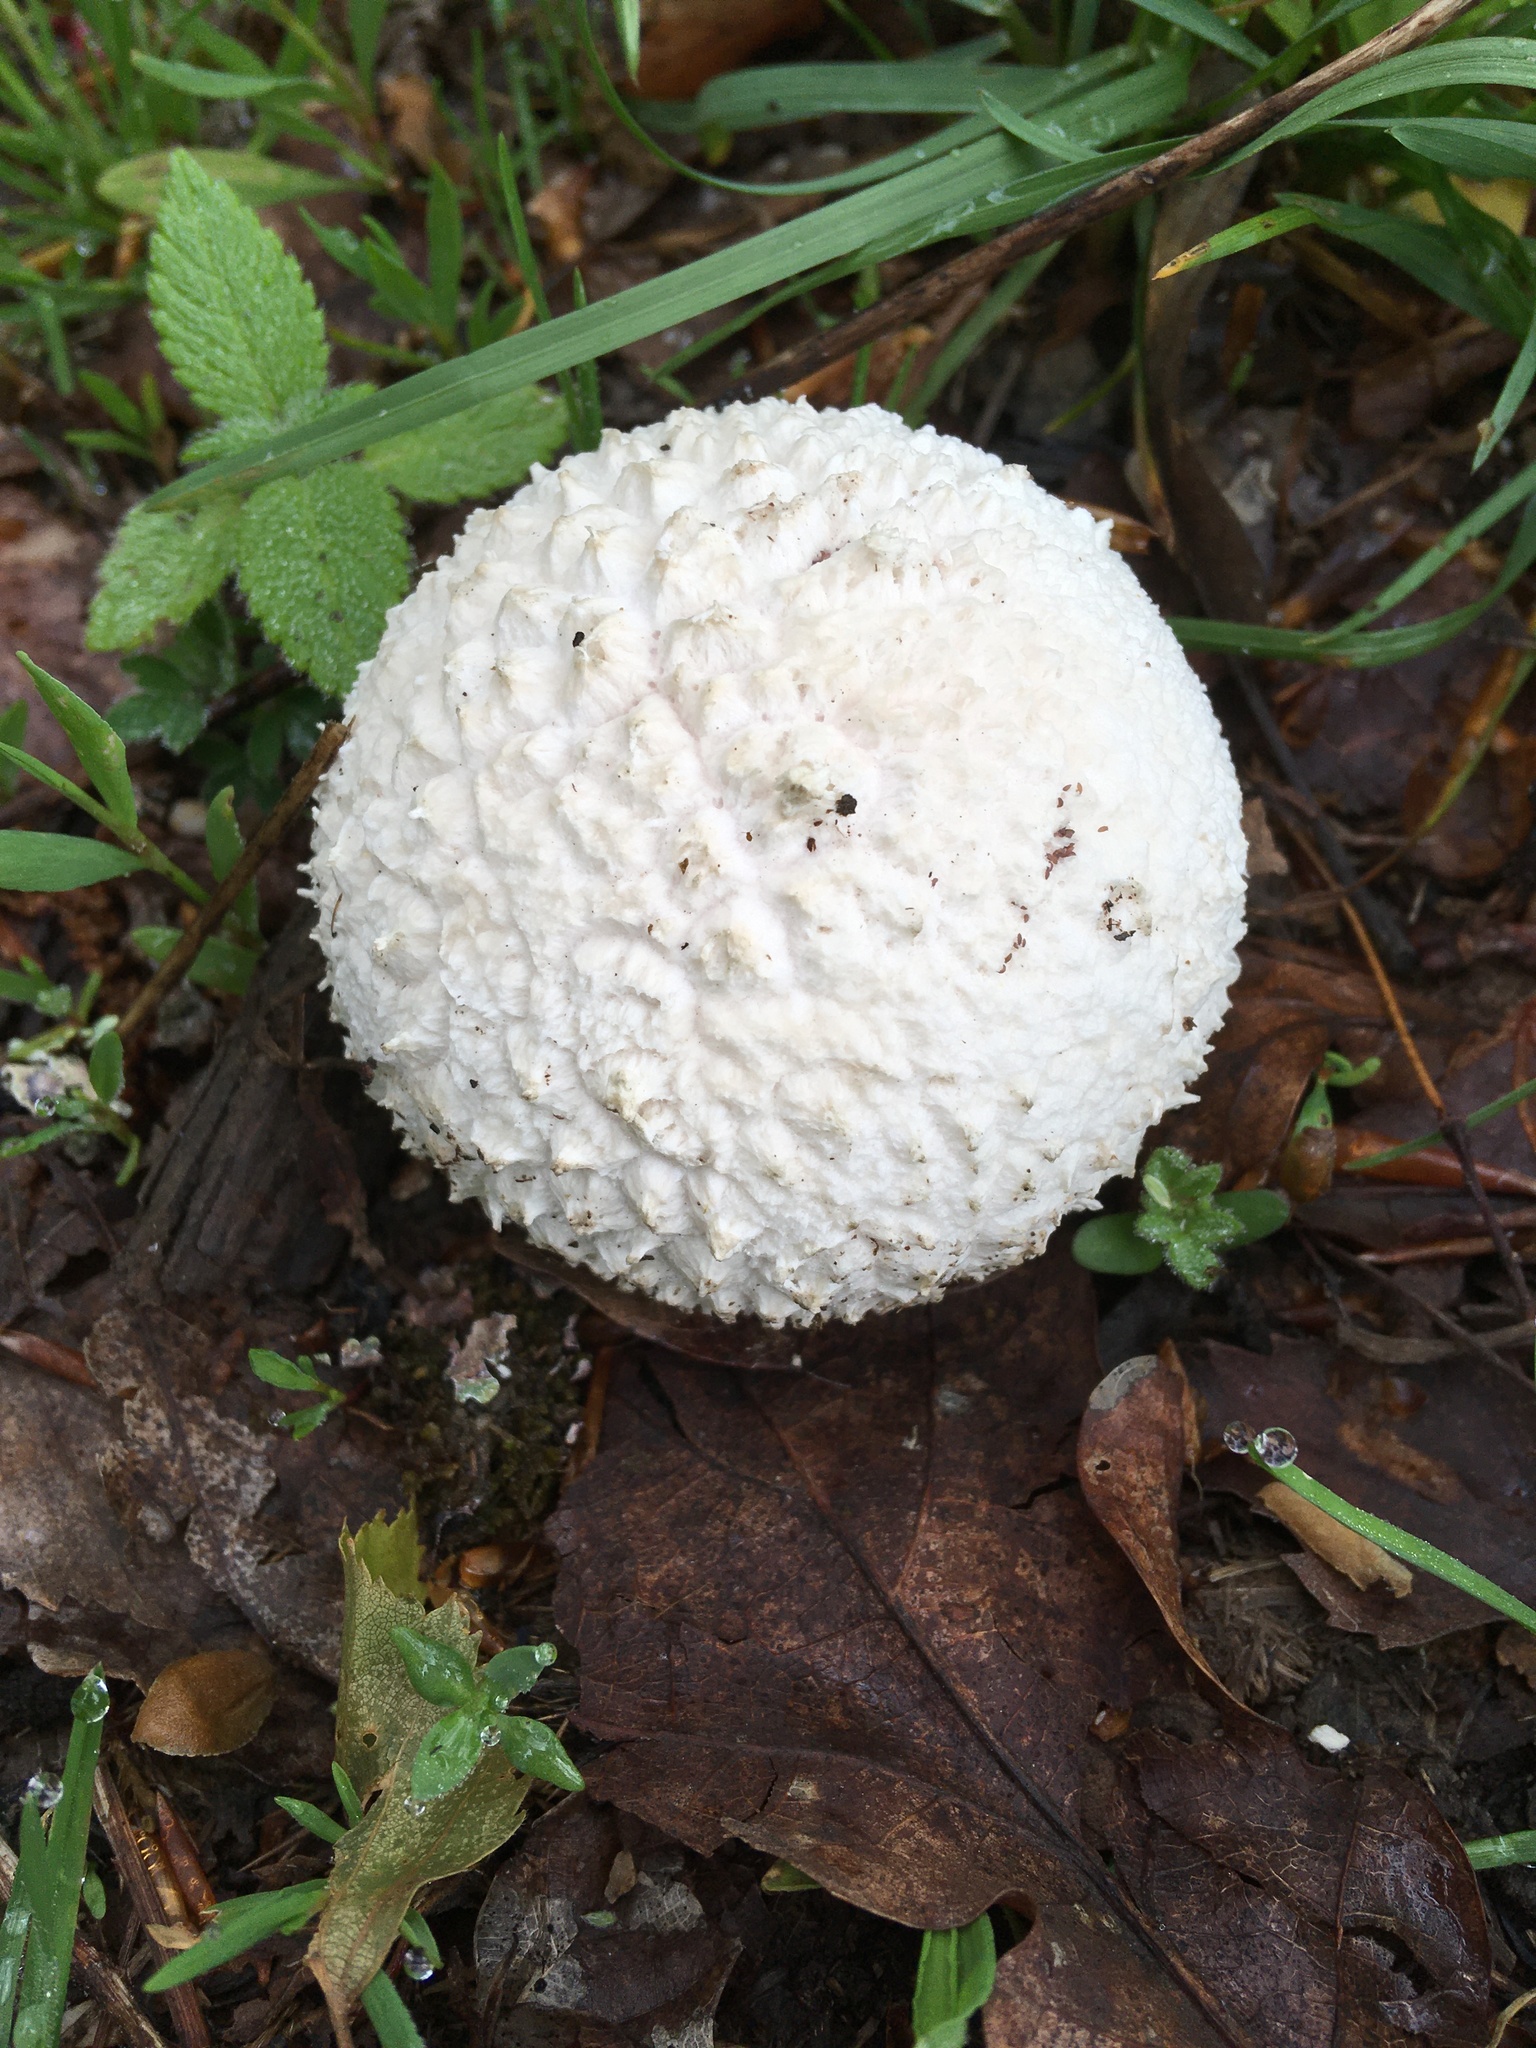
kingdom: Fungi
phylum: Basidiomycota
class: Agaricomycetes
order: Agaricales
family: Lycoperdaceae
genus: Lycoperdon
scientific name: Lycoperdon perlatum
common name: Common puffball
